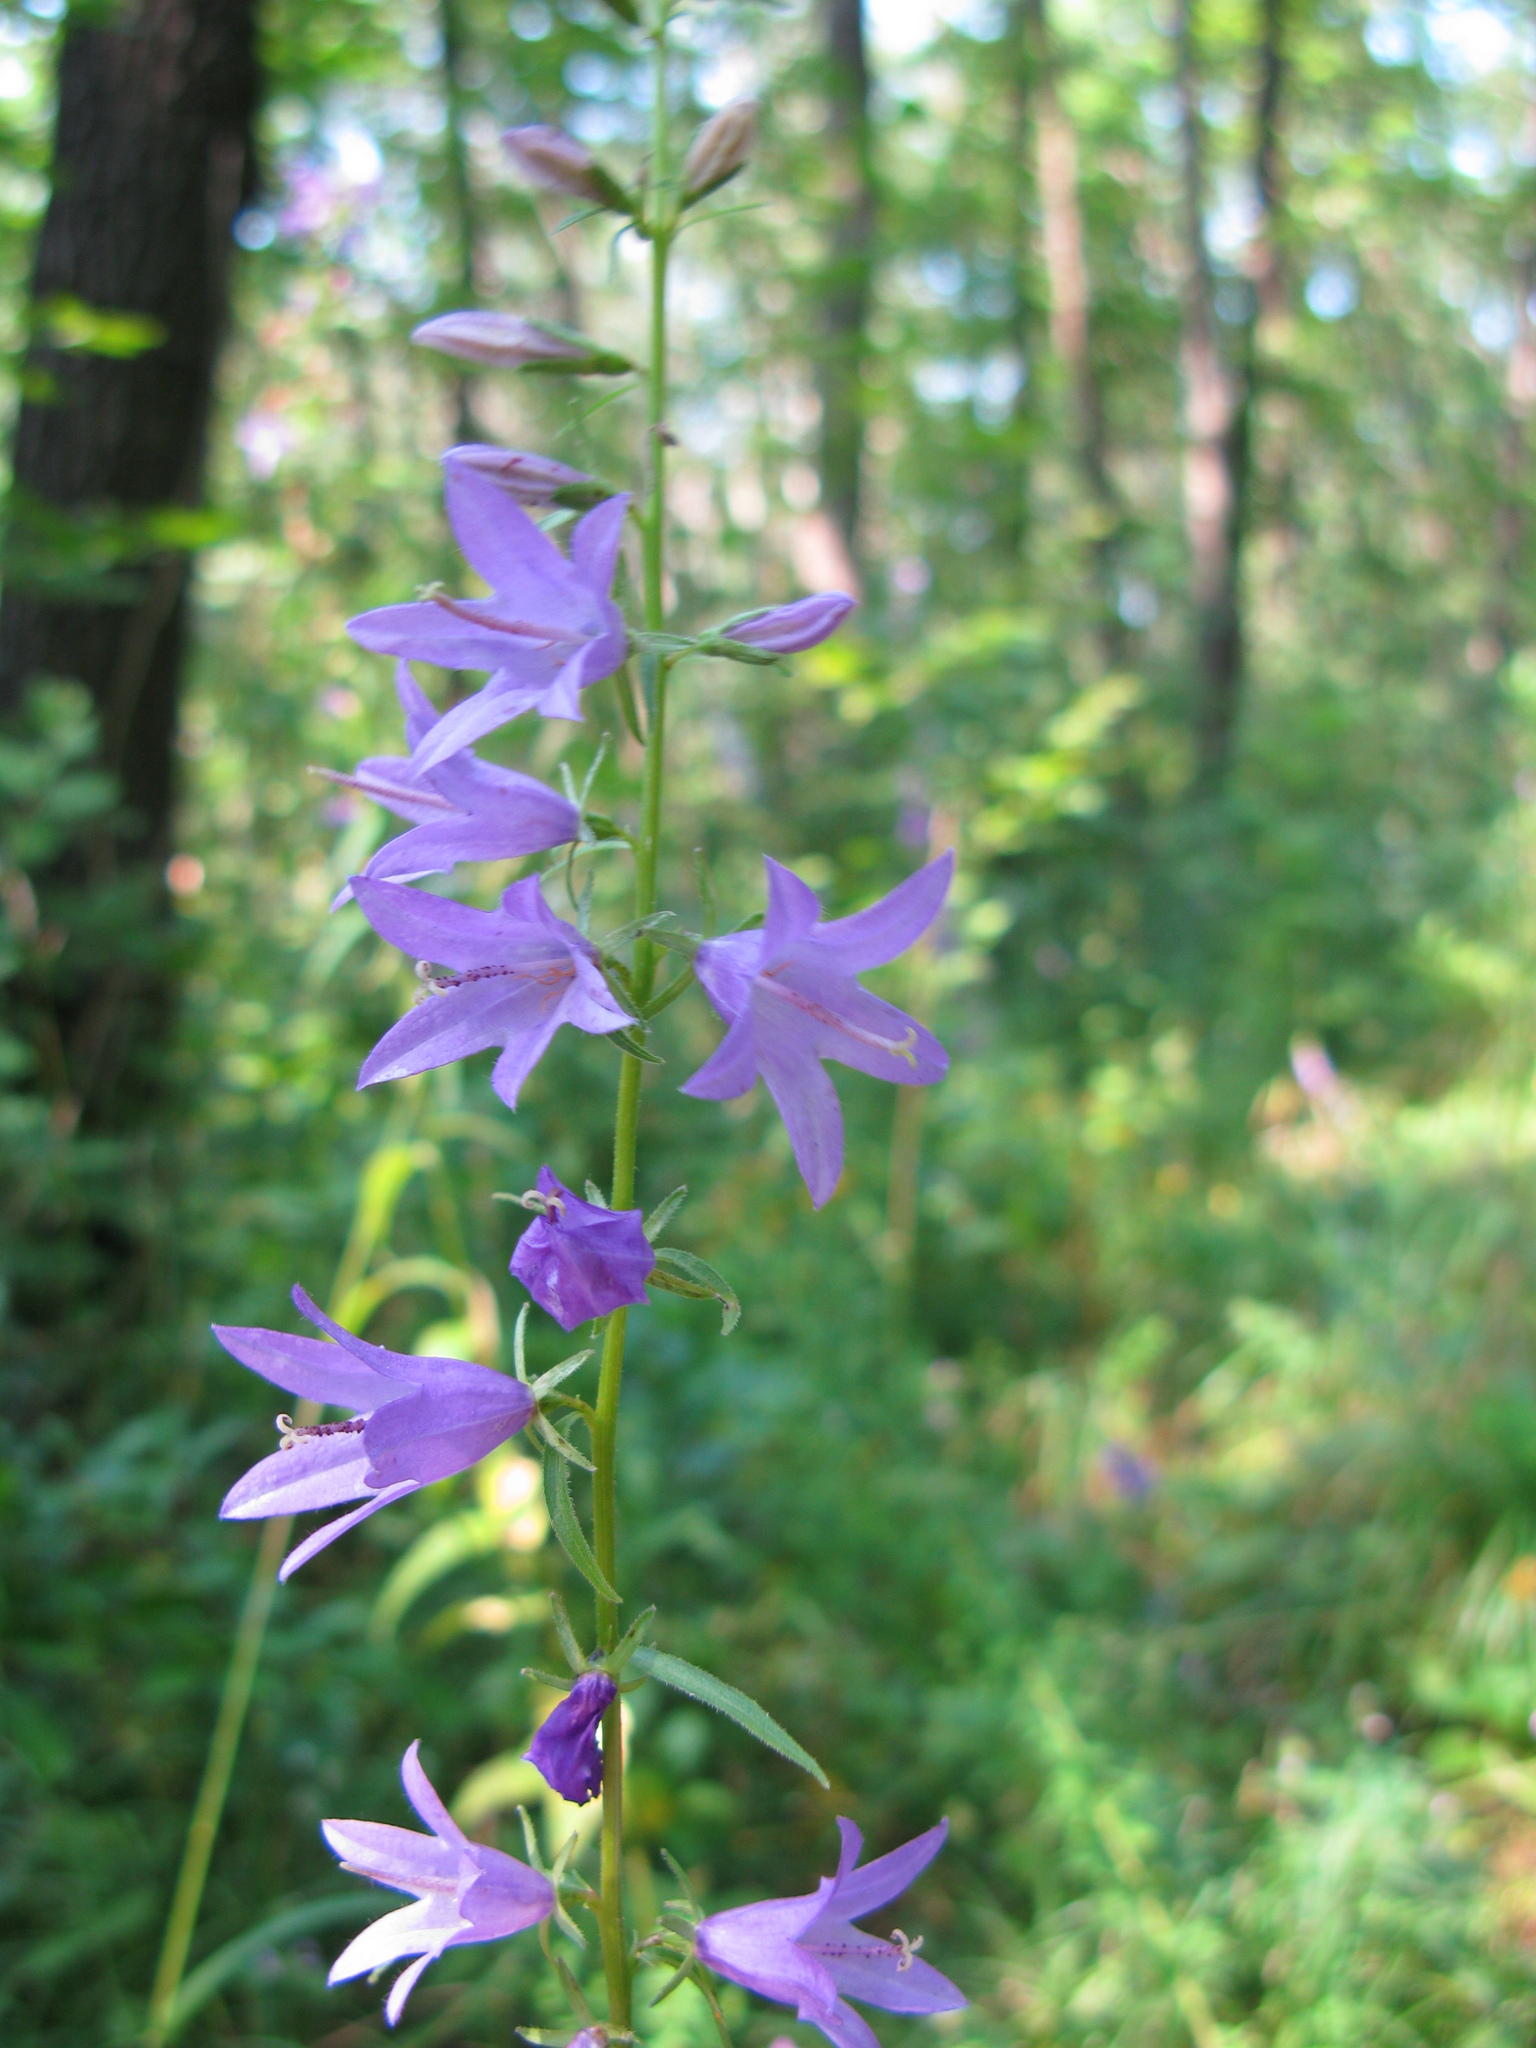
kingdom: Plantae
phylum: Tracheophyta
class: Magnoliopsida
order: Asterales
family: Campanulaceae
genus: Campanula
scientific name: Campanula rapunculoides
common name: Creeping bellflower
